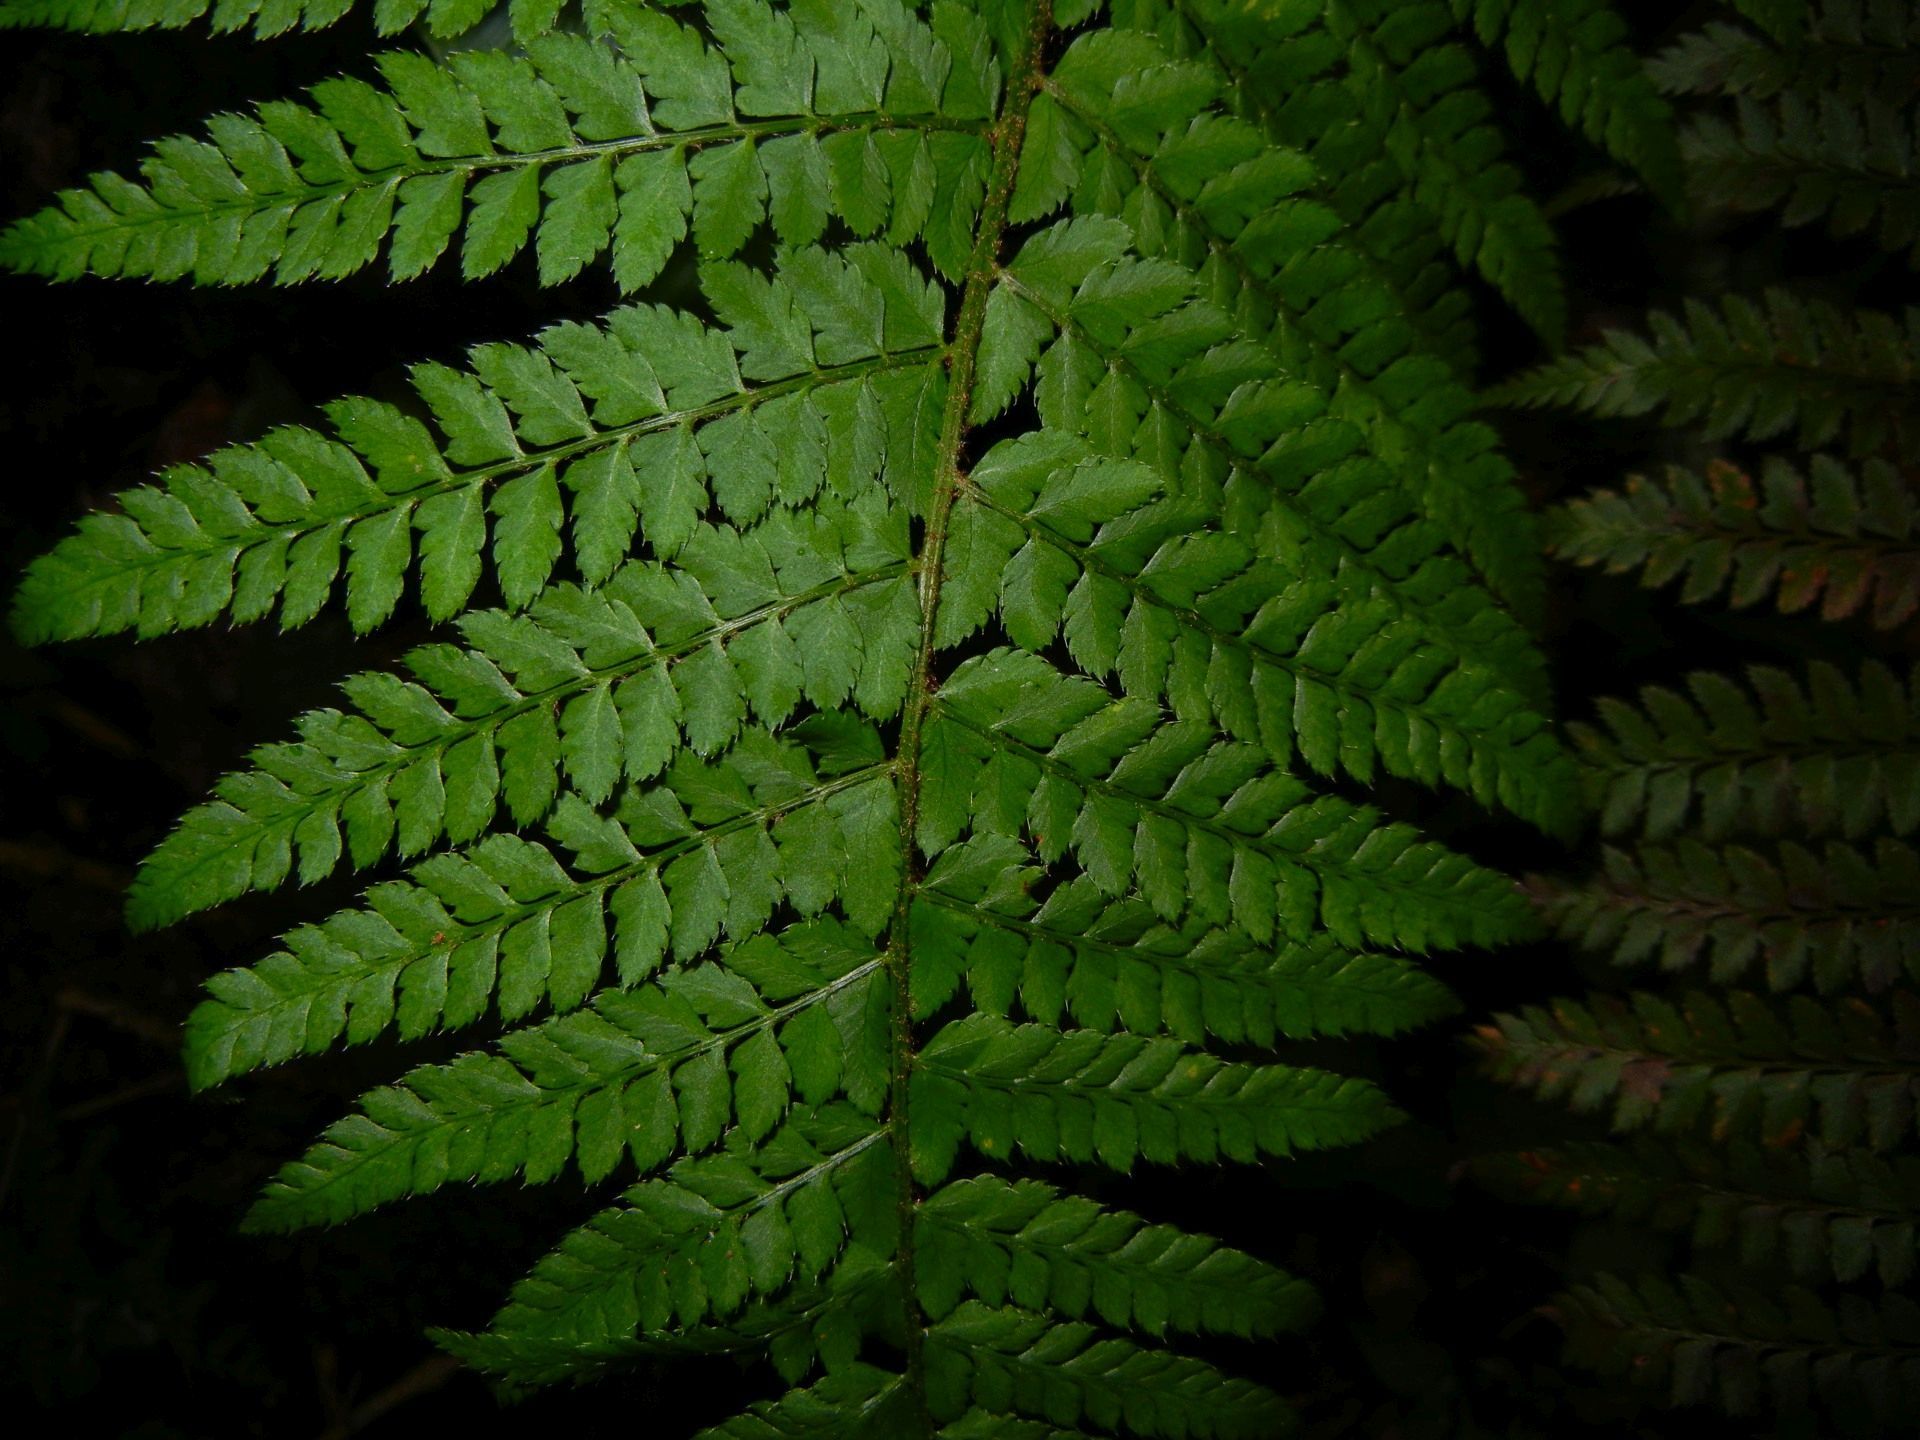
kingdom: Plantae
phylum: Tracheophyta
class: Polypodiopsida
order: Polypodiales
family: Dryopteridaceae
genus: Polystichum
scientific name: Polystichum setiferum
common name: Soft shield-fern
